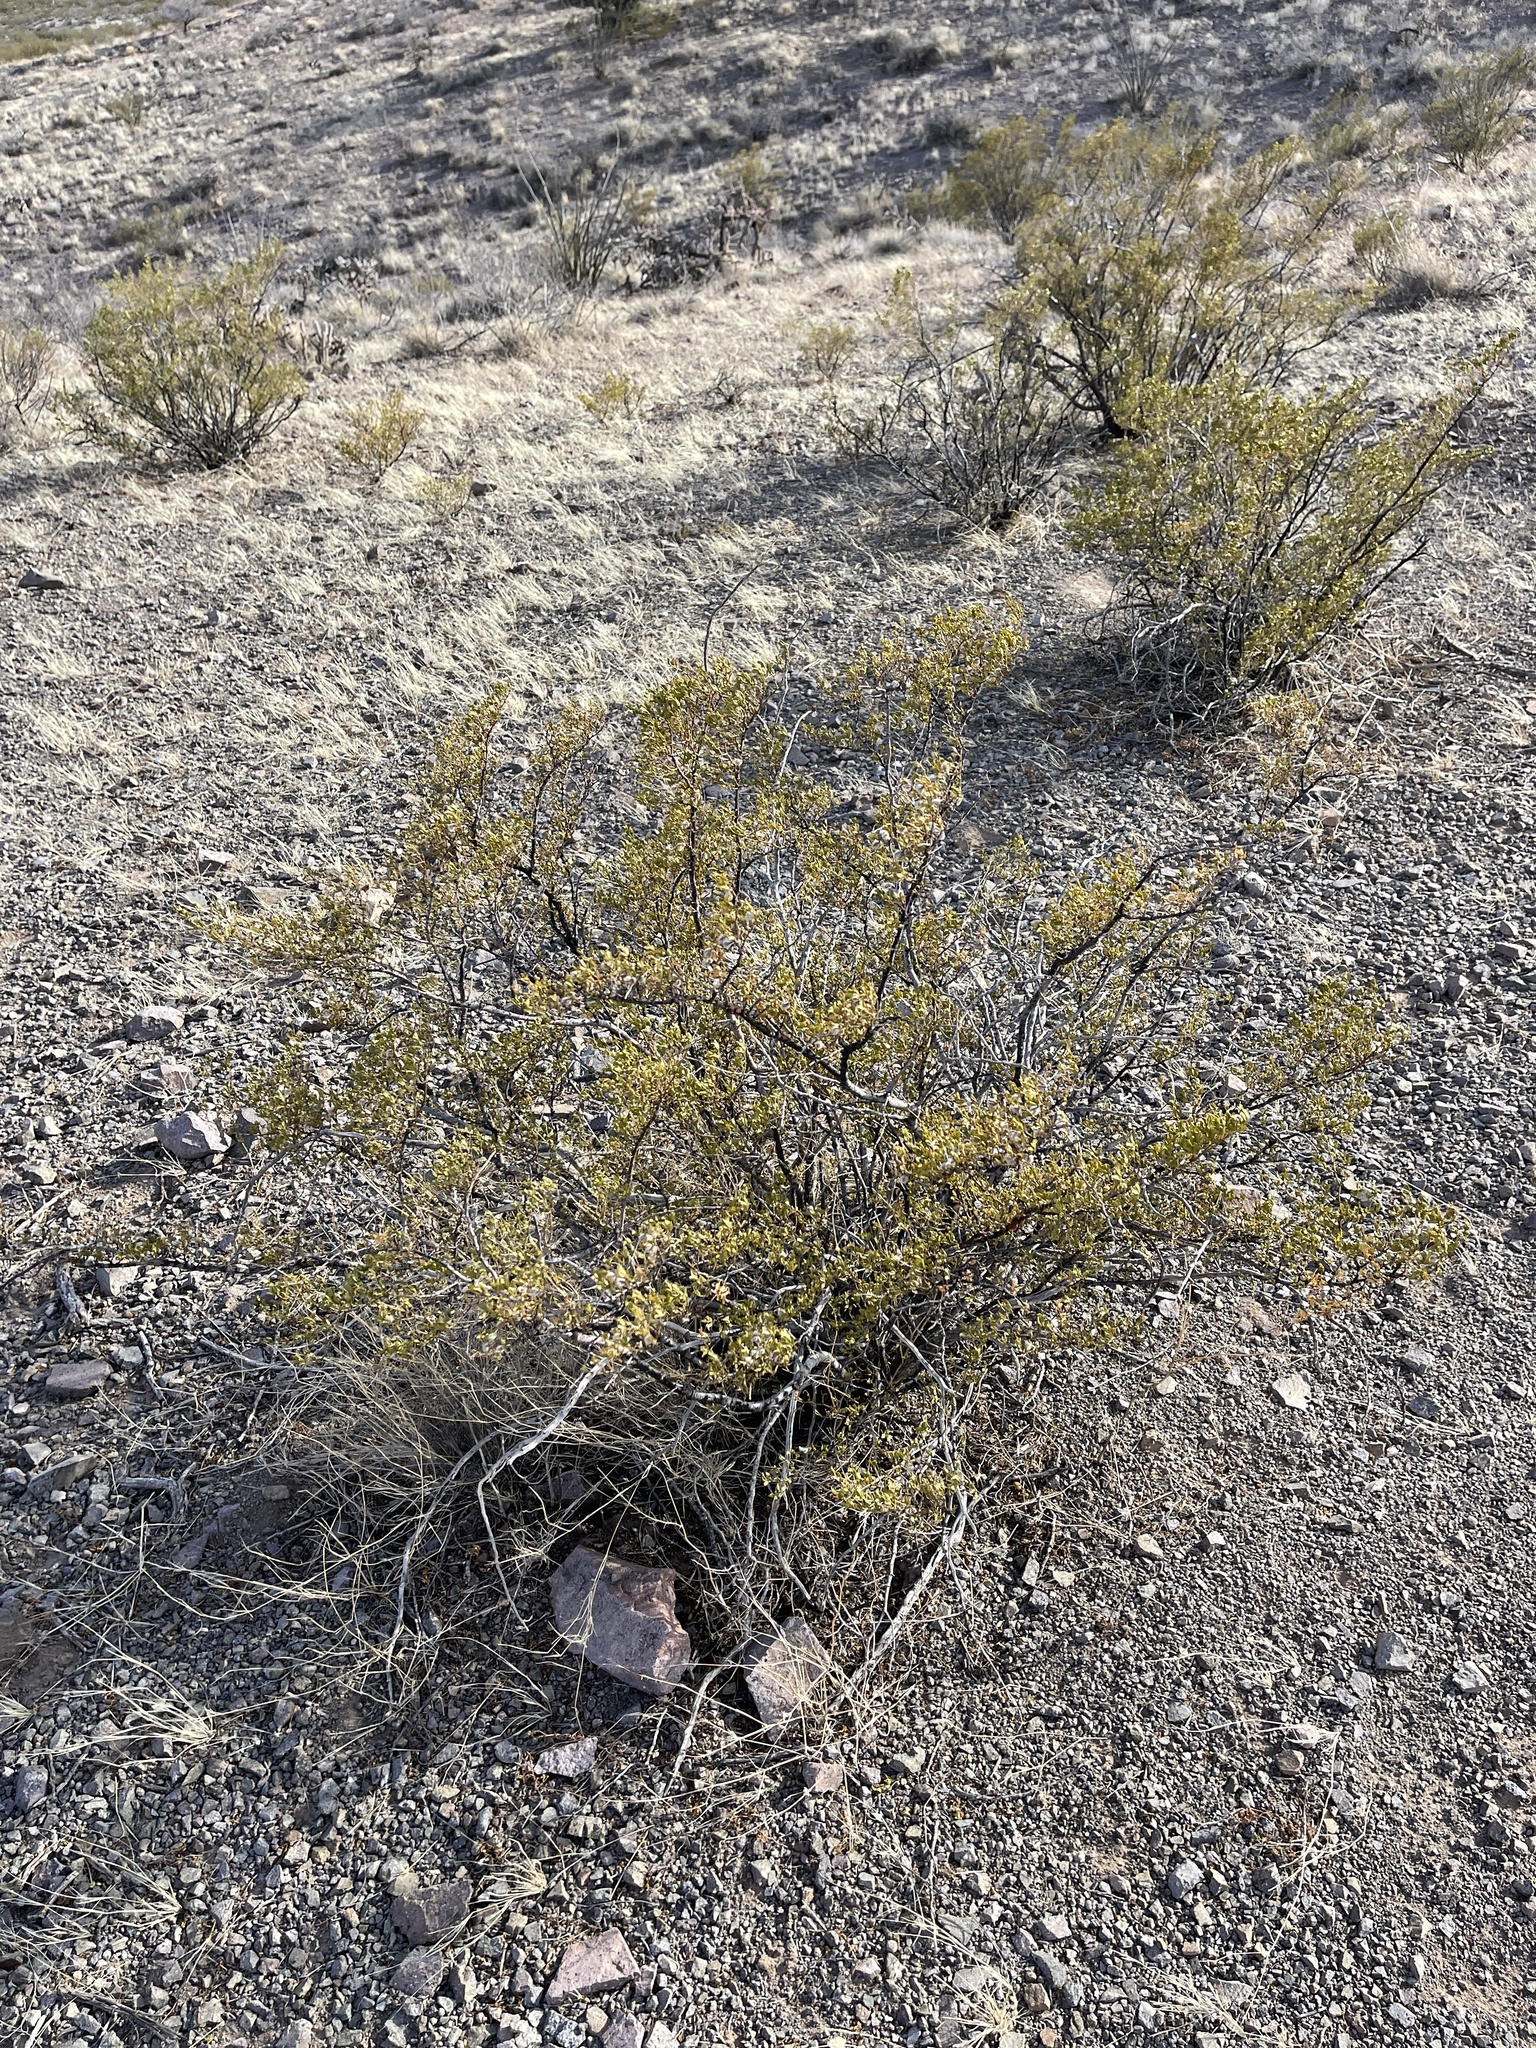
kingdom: Plantae
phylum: Tracheophyta
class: Magnoliopsida
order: Zygophyllales
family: Zygophyllaceae
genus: Larrea
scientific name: Larrea tridentata
